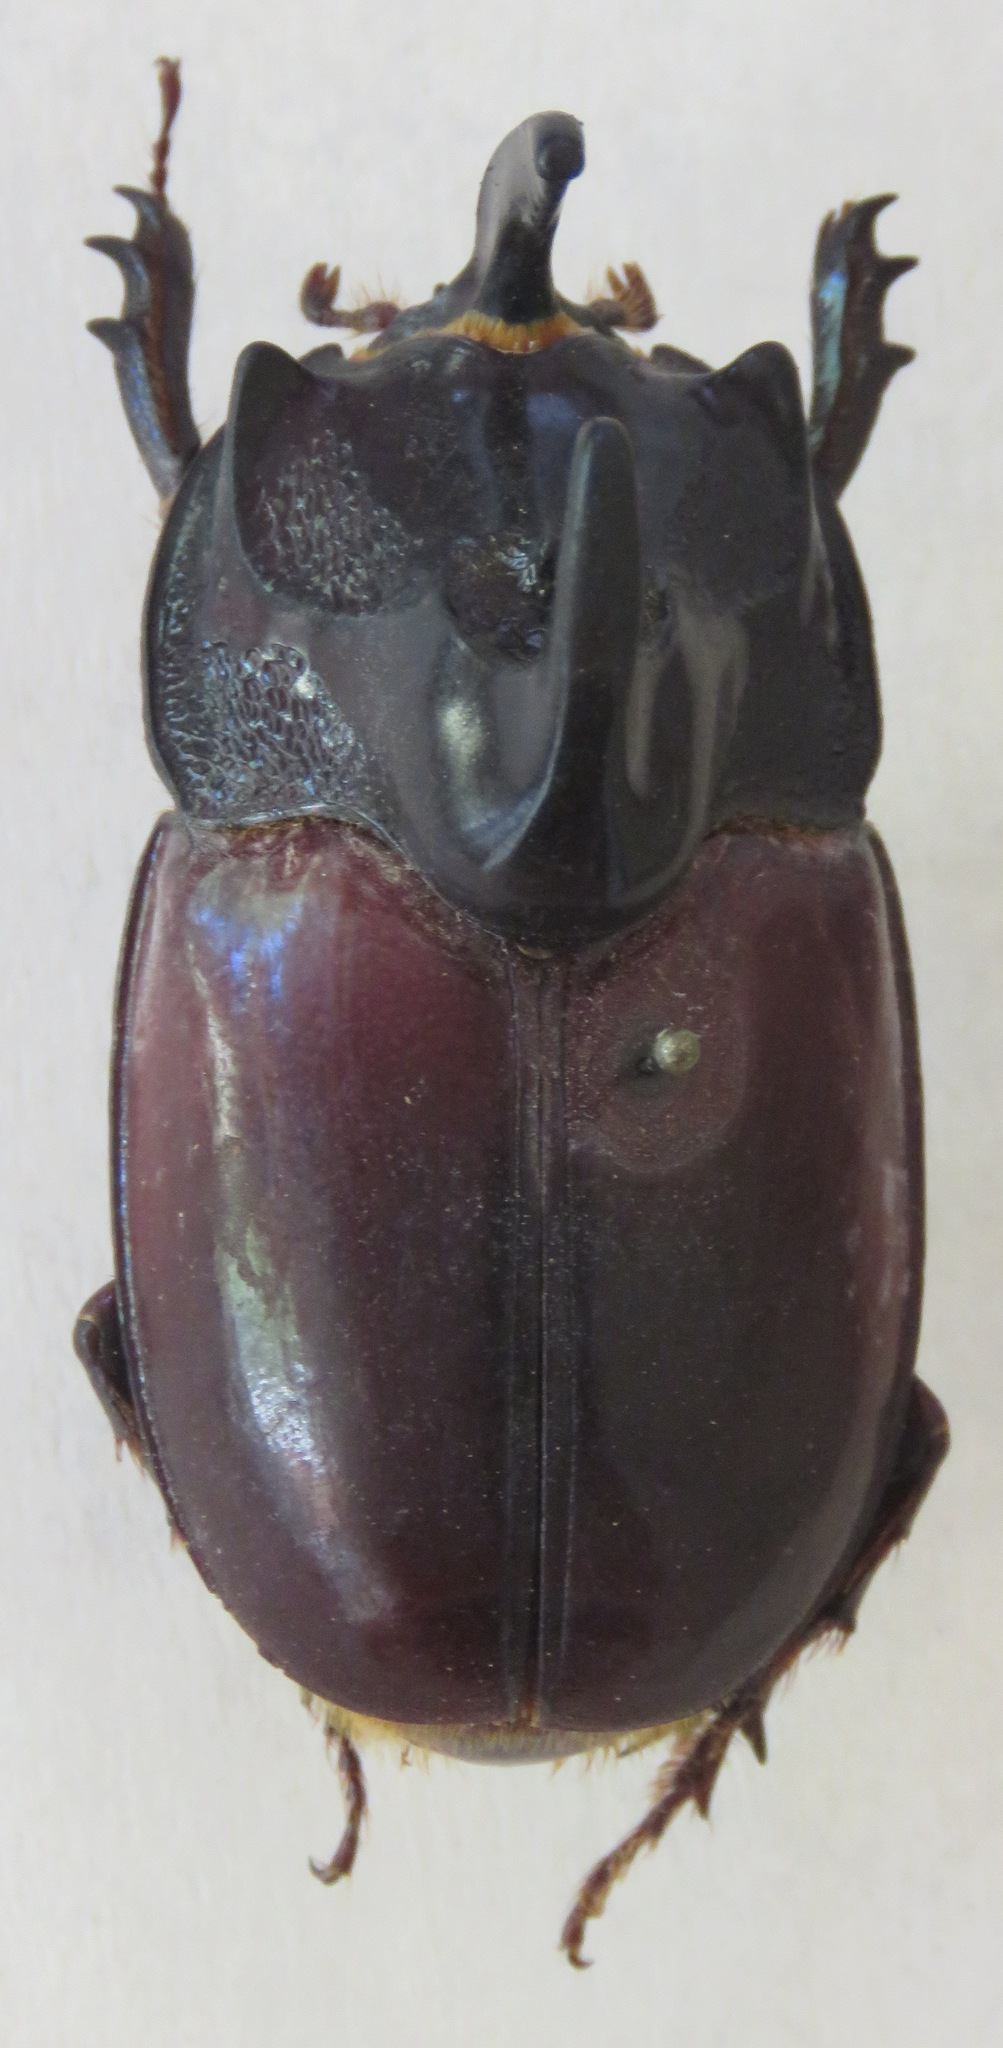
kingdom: Animalia
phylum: Arthropoda
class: Insecta
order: Coleoptera
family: Scarabaeidae
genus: Trichogomphus
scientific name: Trichogomphus simson
